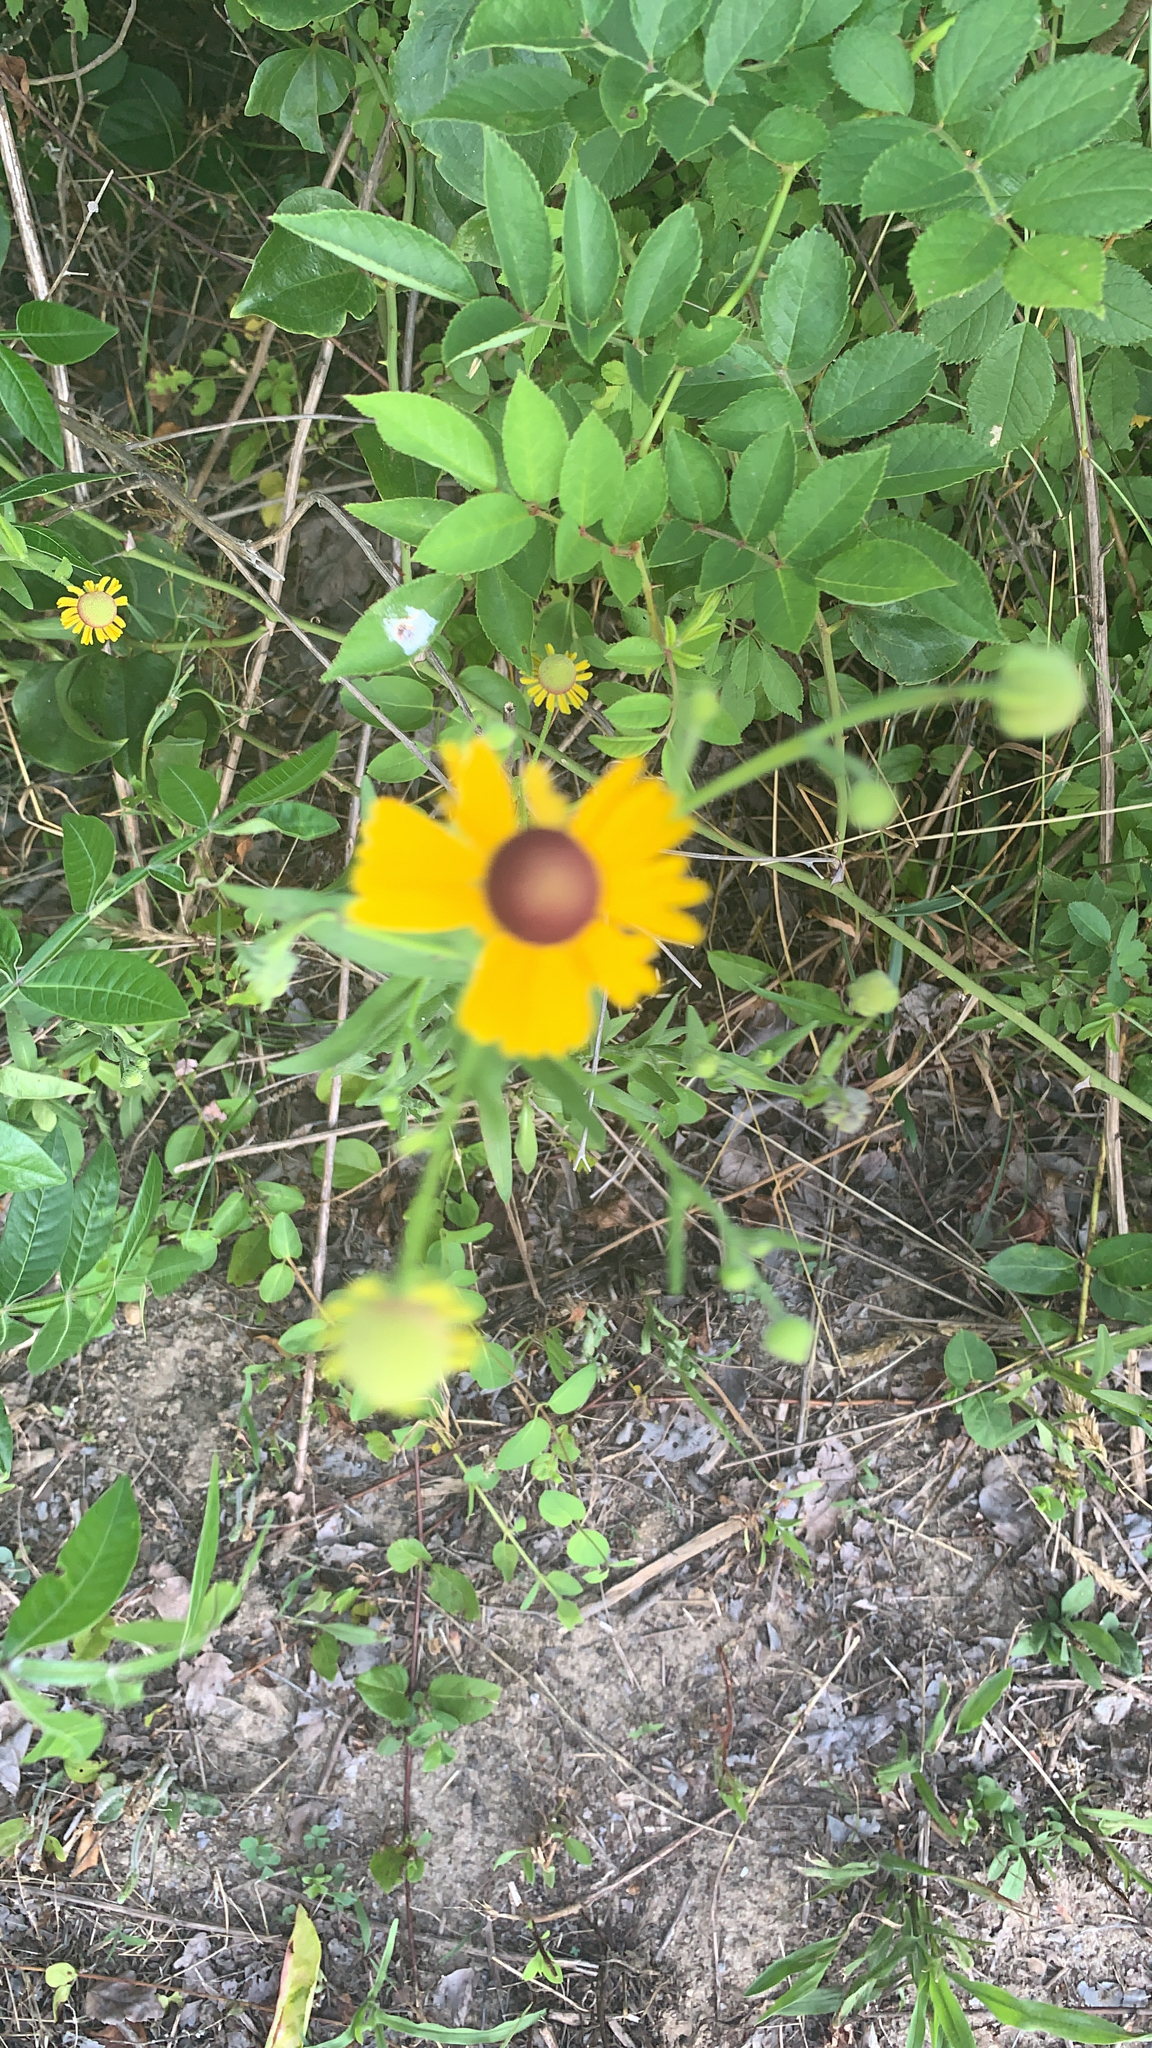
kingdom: Plantae
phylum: Tracheophyta
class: Magnoliopsida
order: Asterales
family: Asteraceae
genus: Helenium
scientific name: Helenium flexuosum
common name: Naked-flowered sneezeweed
